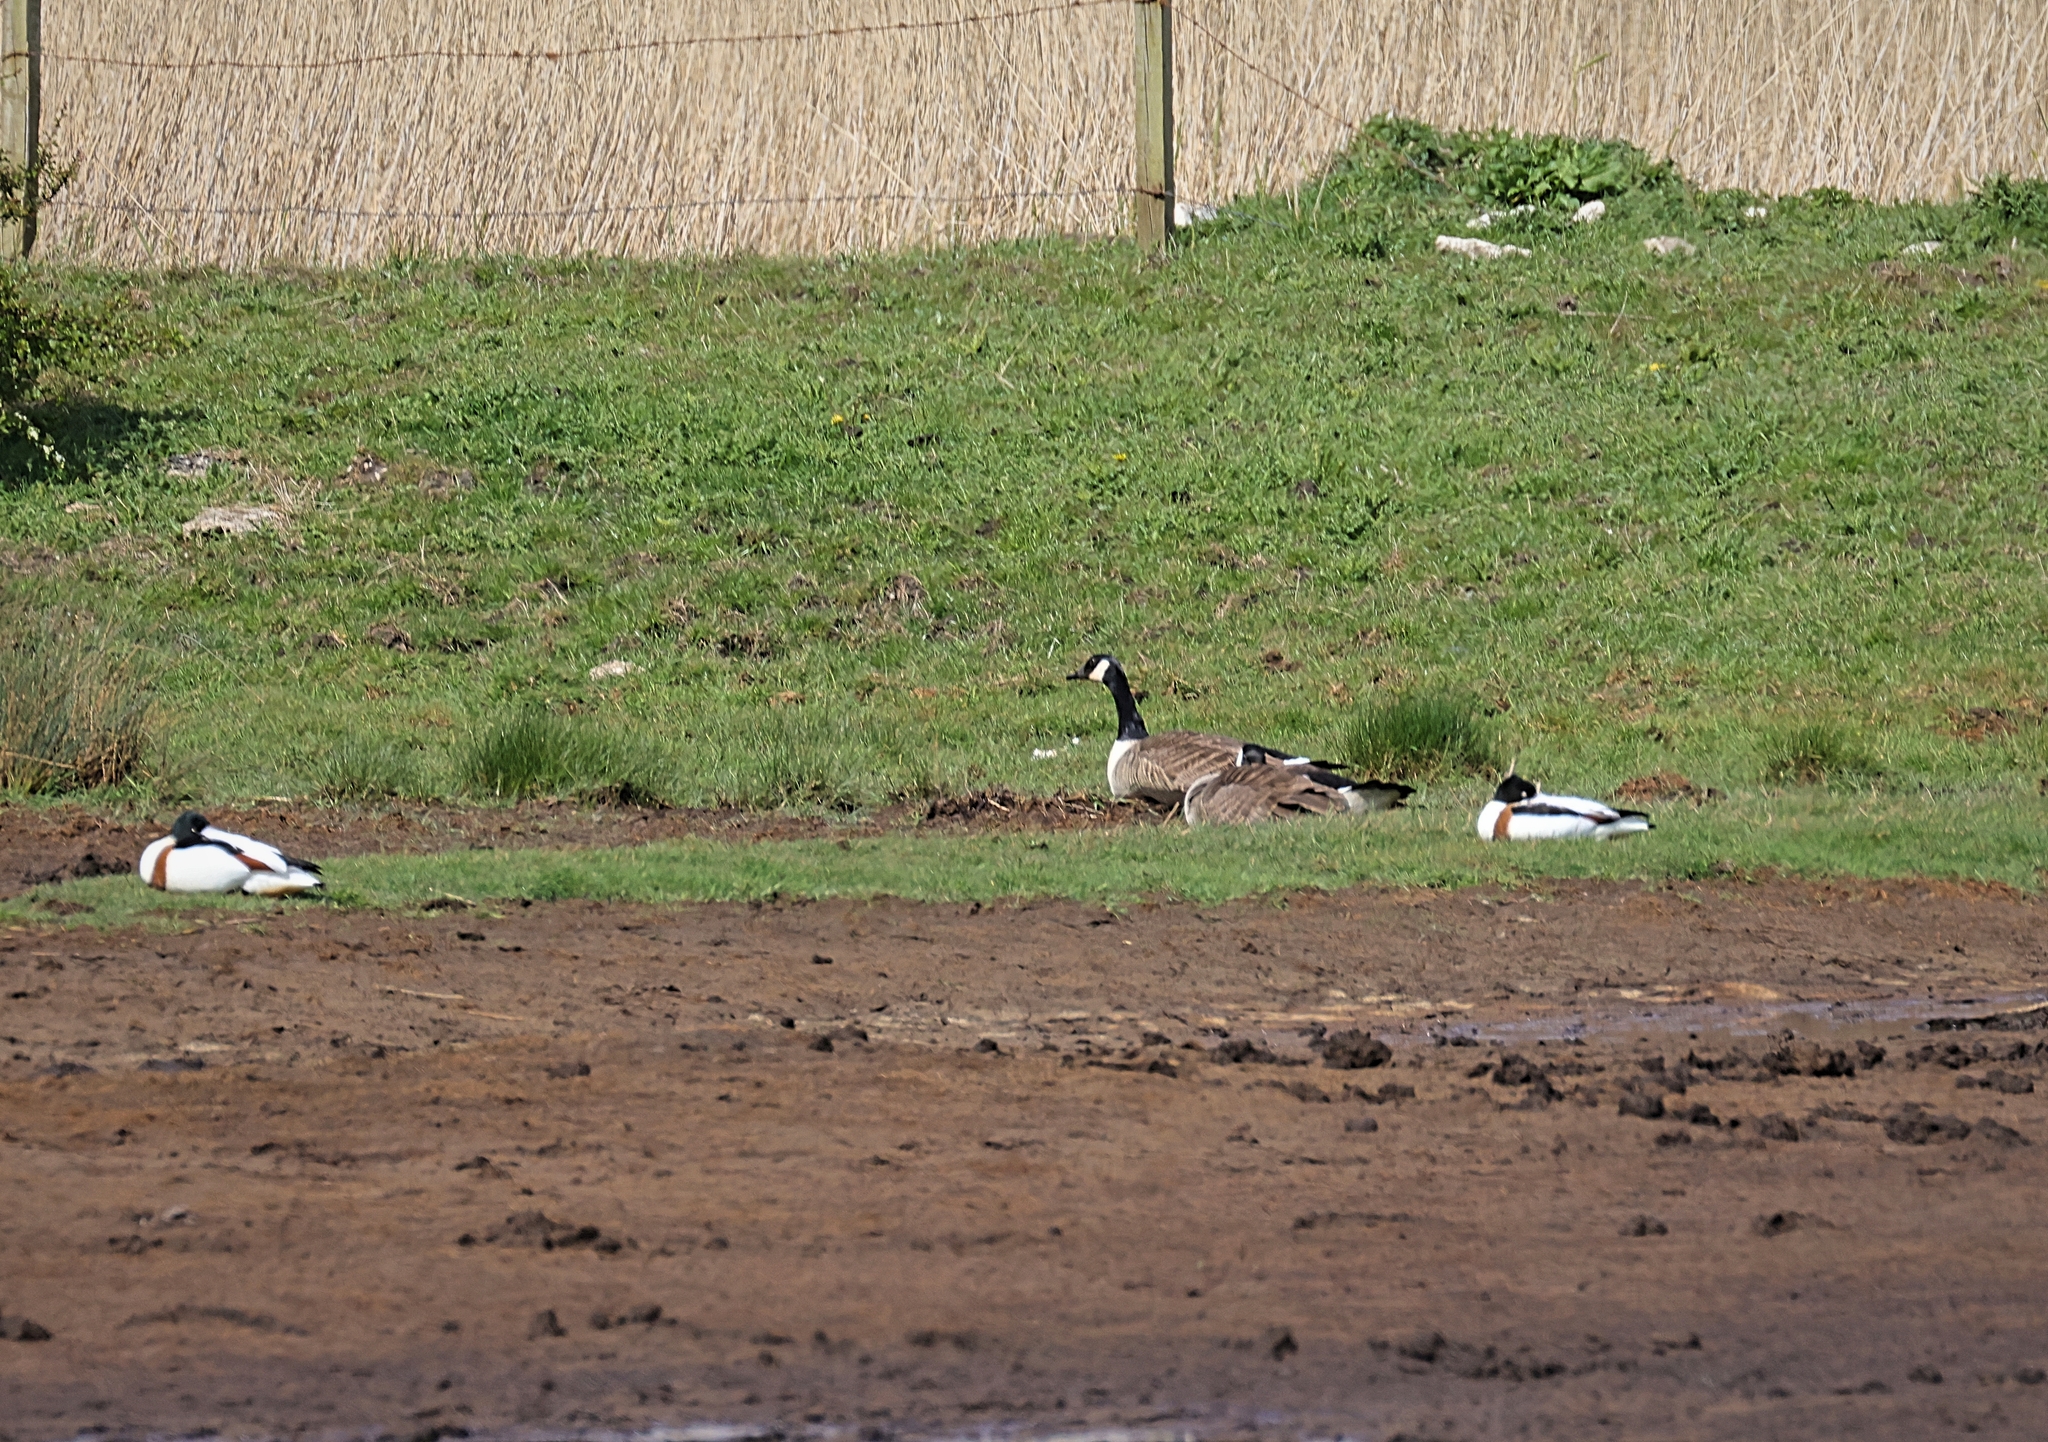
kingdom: Animalia
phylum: Chordata
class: Aves
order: Anseriformes
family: Anatidae
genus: Tadorna
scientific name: Tadorna tadorna
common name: Common shelduck
